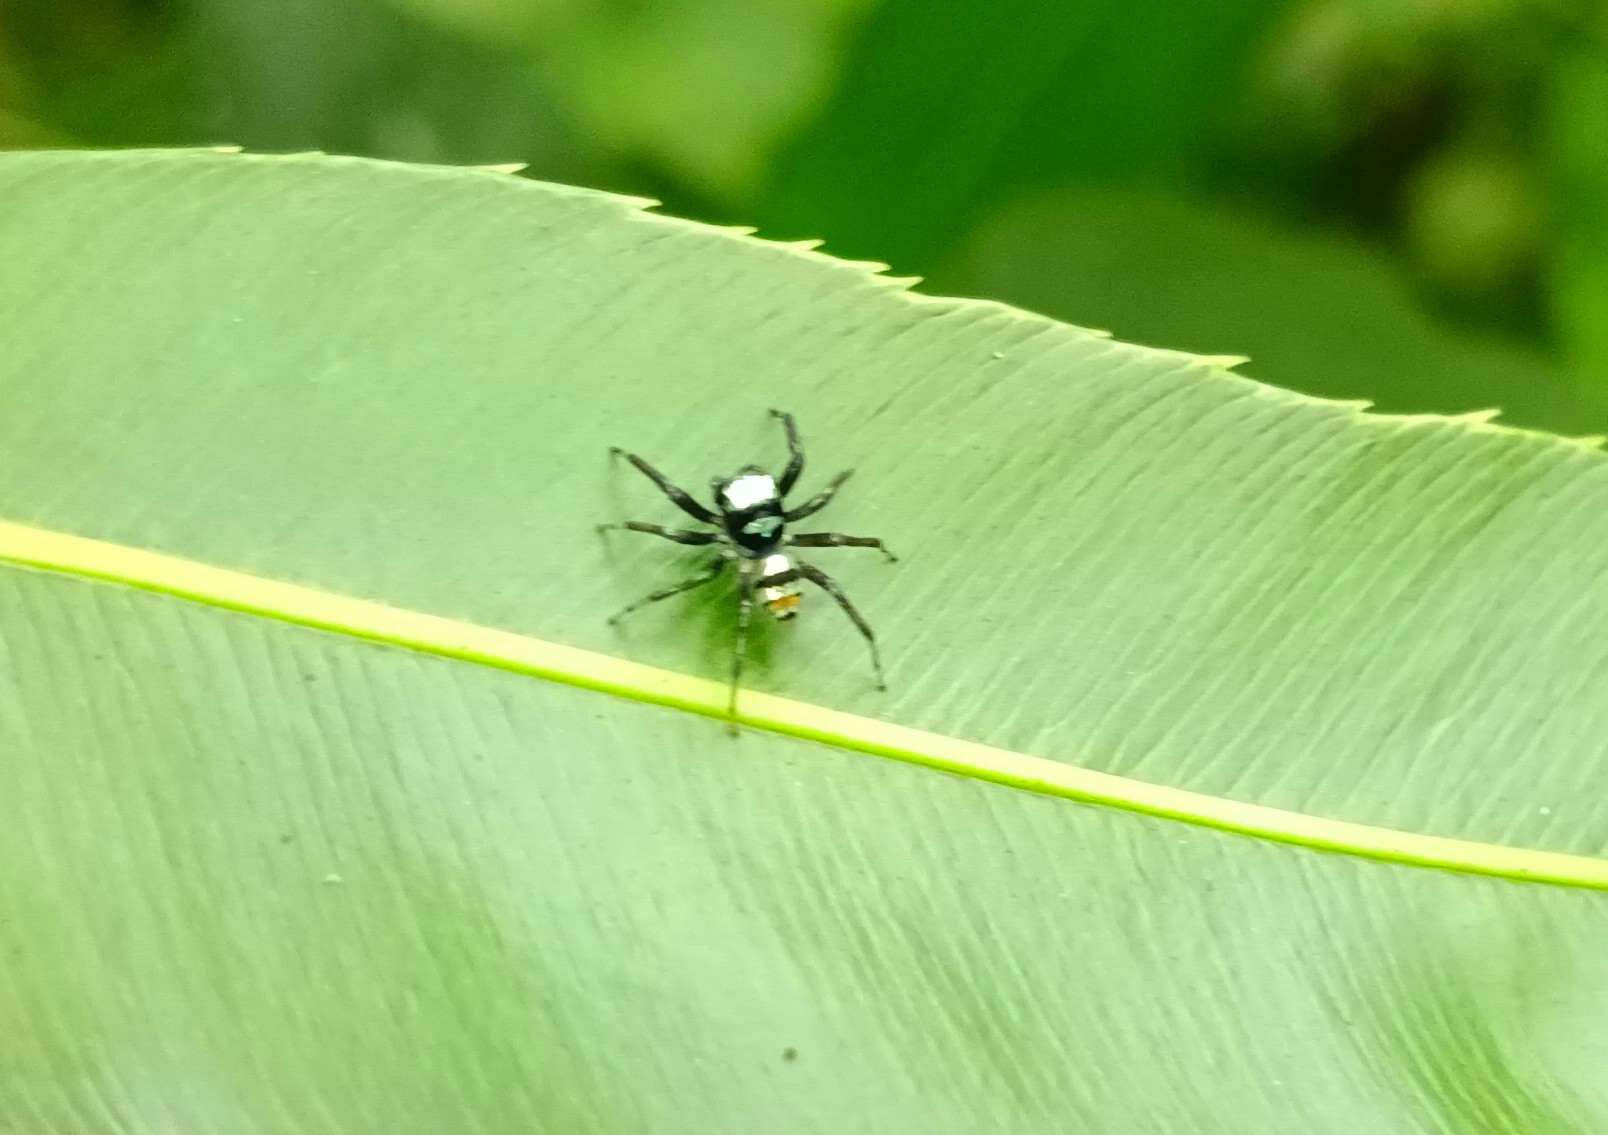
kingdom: Animalia
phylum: Arthropoda
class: Arachnida
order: Araneae
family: Salticidae
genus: Phintella
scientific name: Phintella vittata
